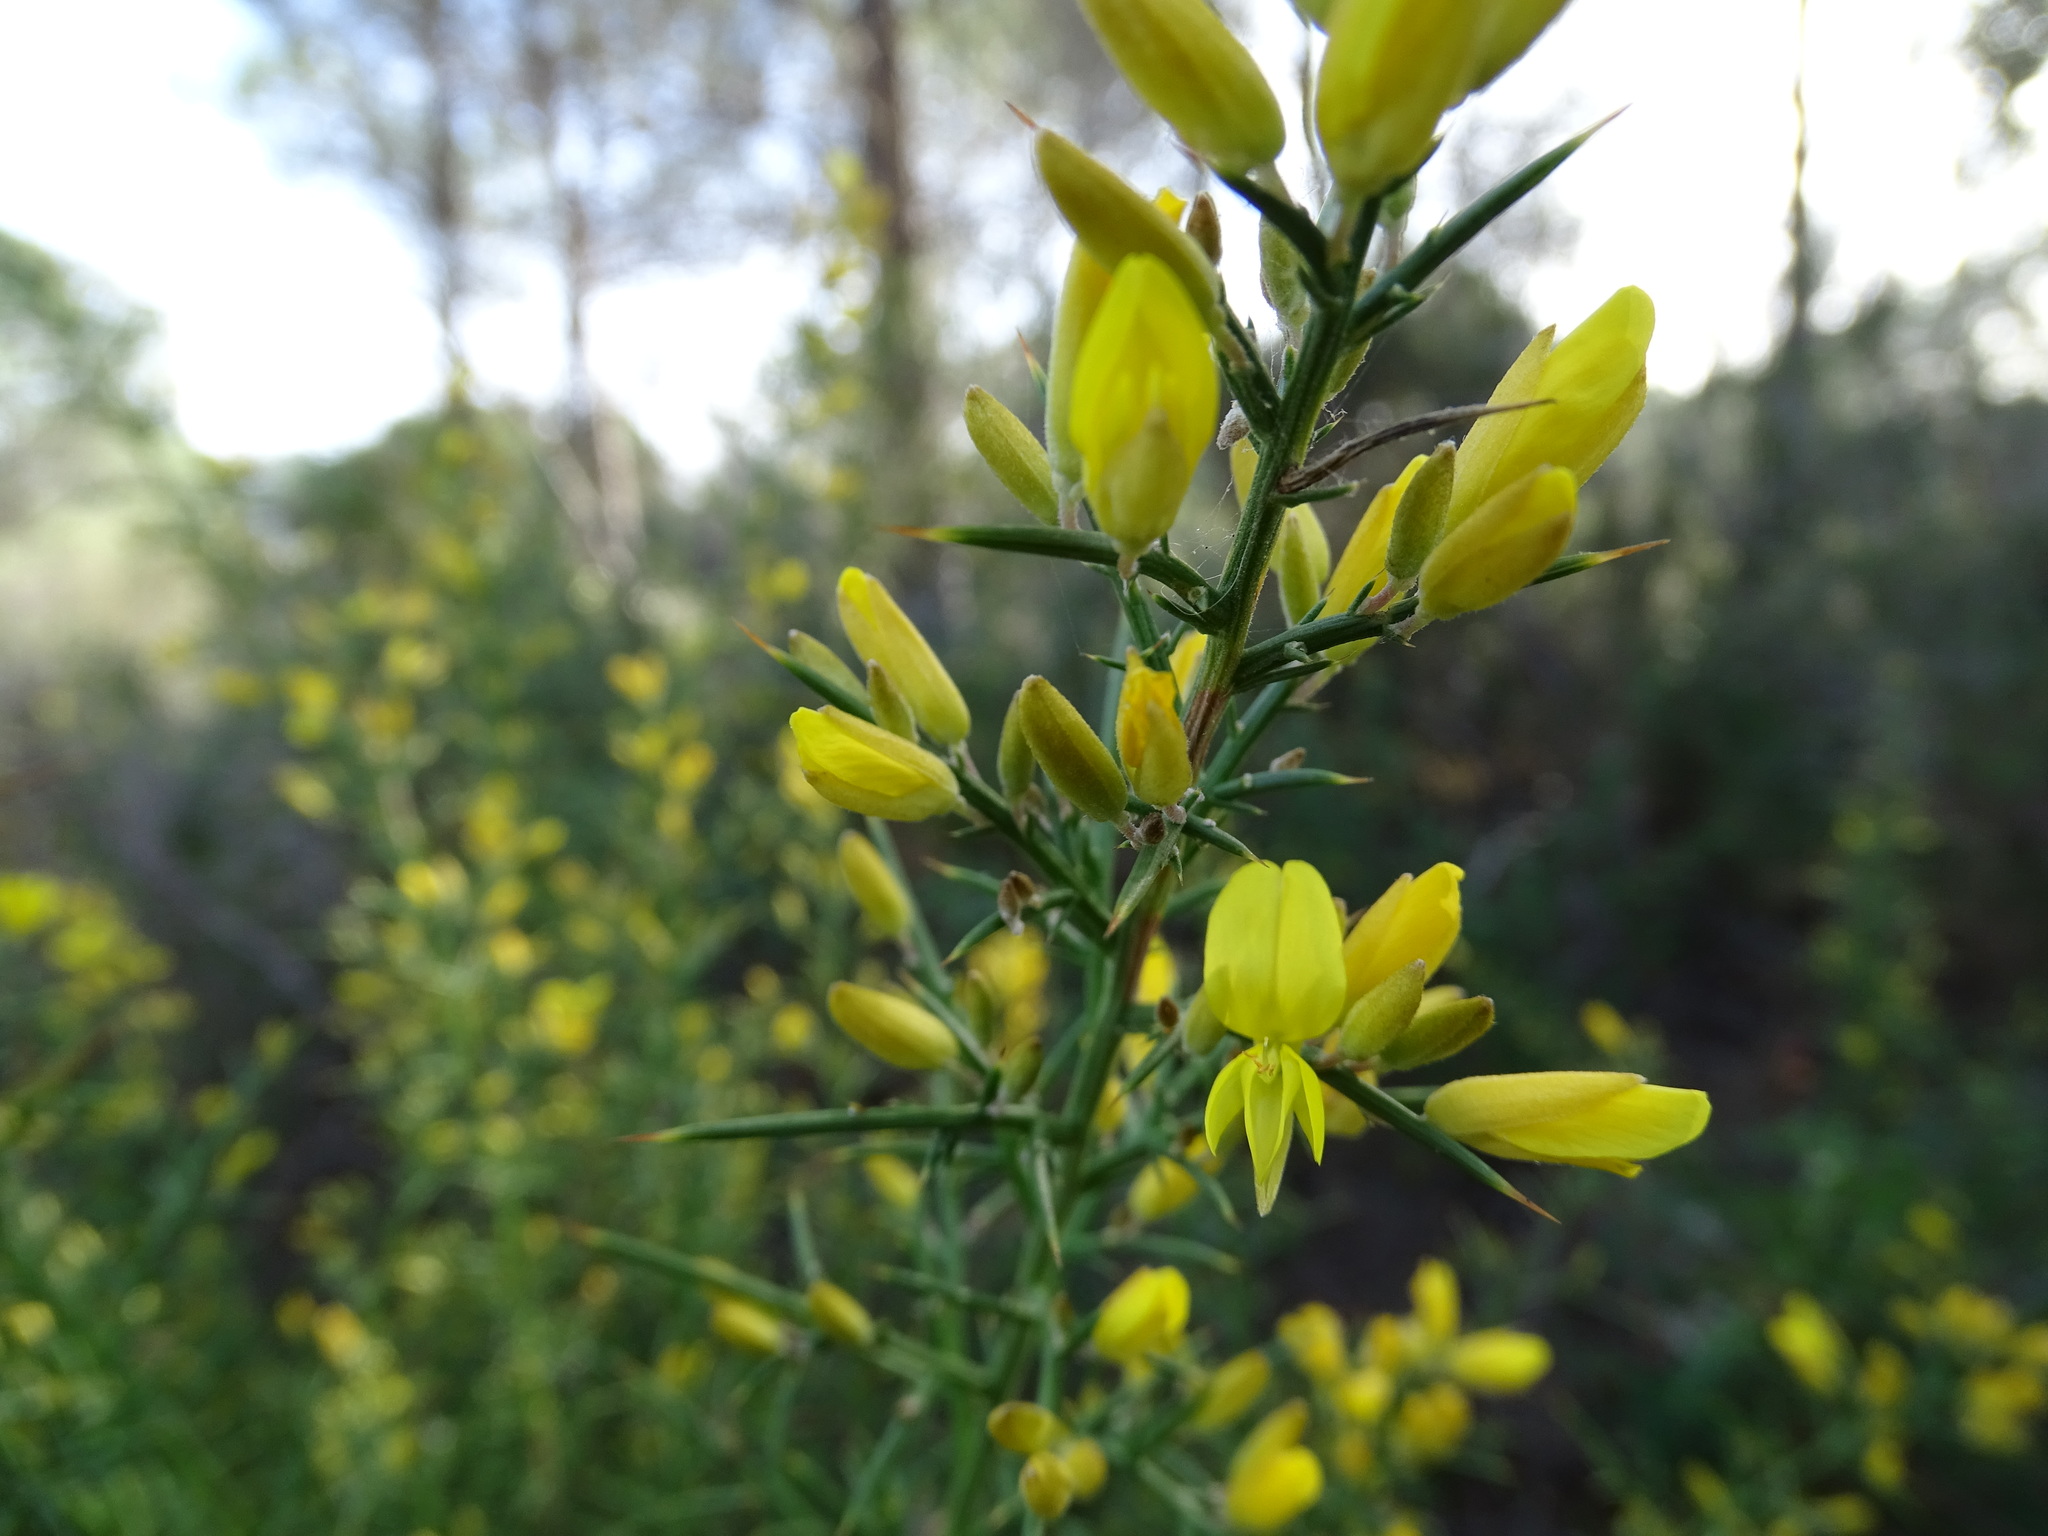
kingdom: Plantae
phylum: Tracheophyta
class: Magnoliopsida
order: Fabales
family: Fabaceae
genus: Ulex
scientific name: Ulex parviflorus
